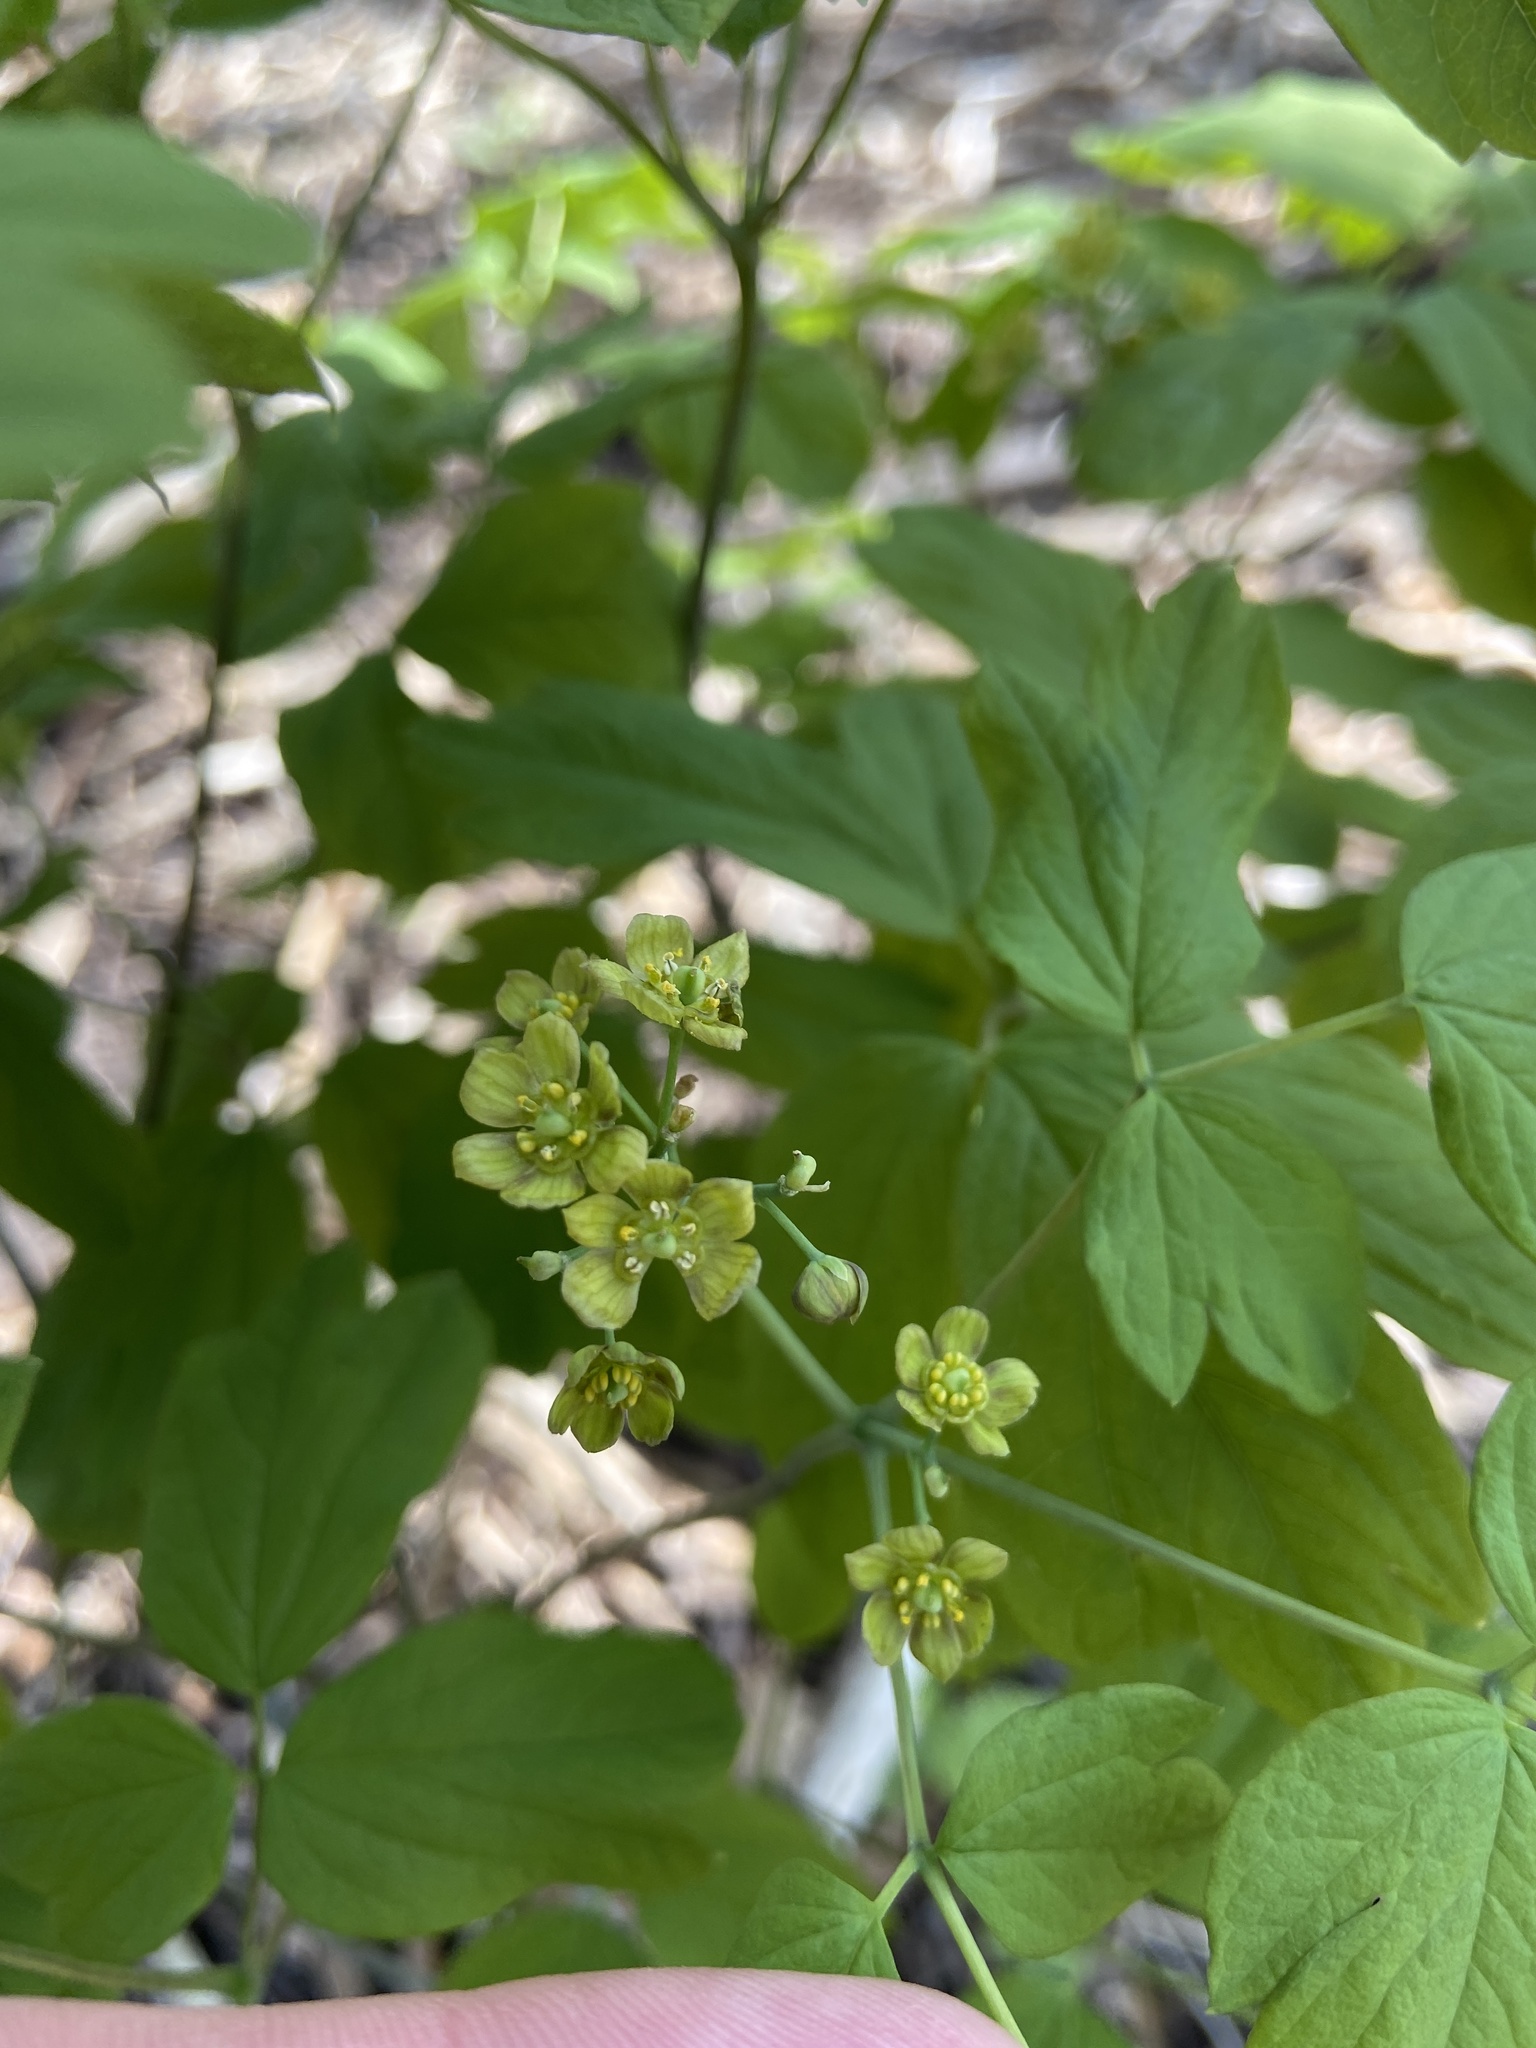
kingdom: Plantae
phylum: Tracheophyta
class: Magnoliopsida
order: Ranunculales
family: Berberidaceae
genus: Caulophyllum
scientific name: Caulophyllum thalictroides
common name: Blue cohosh
